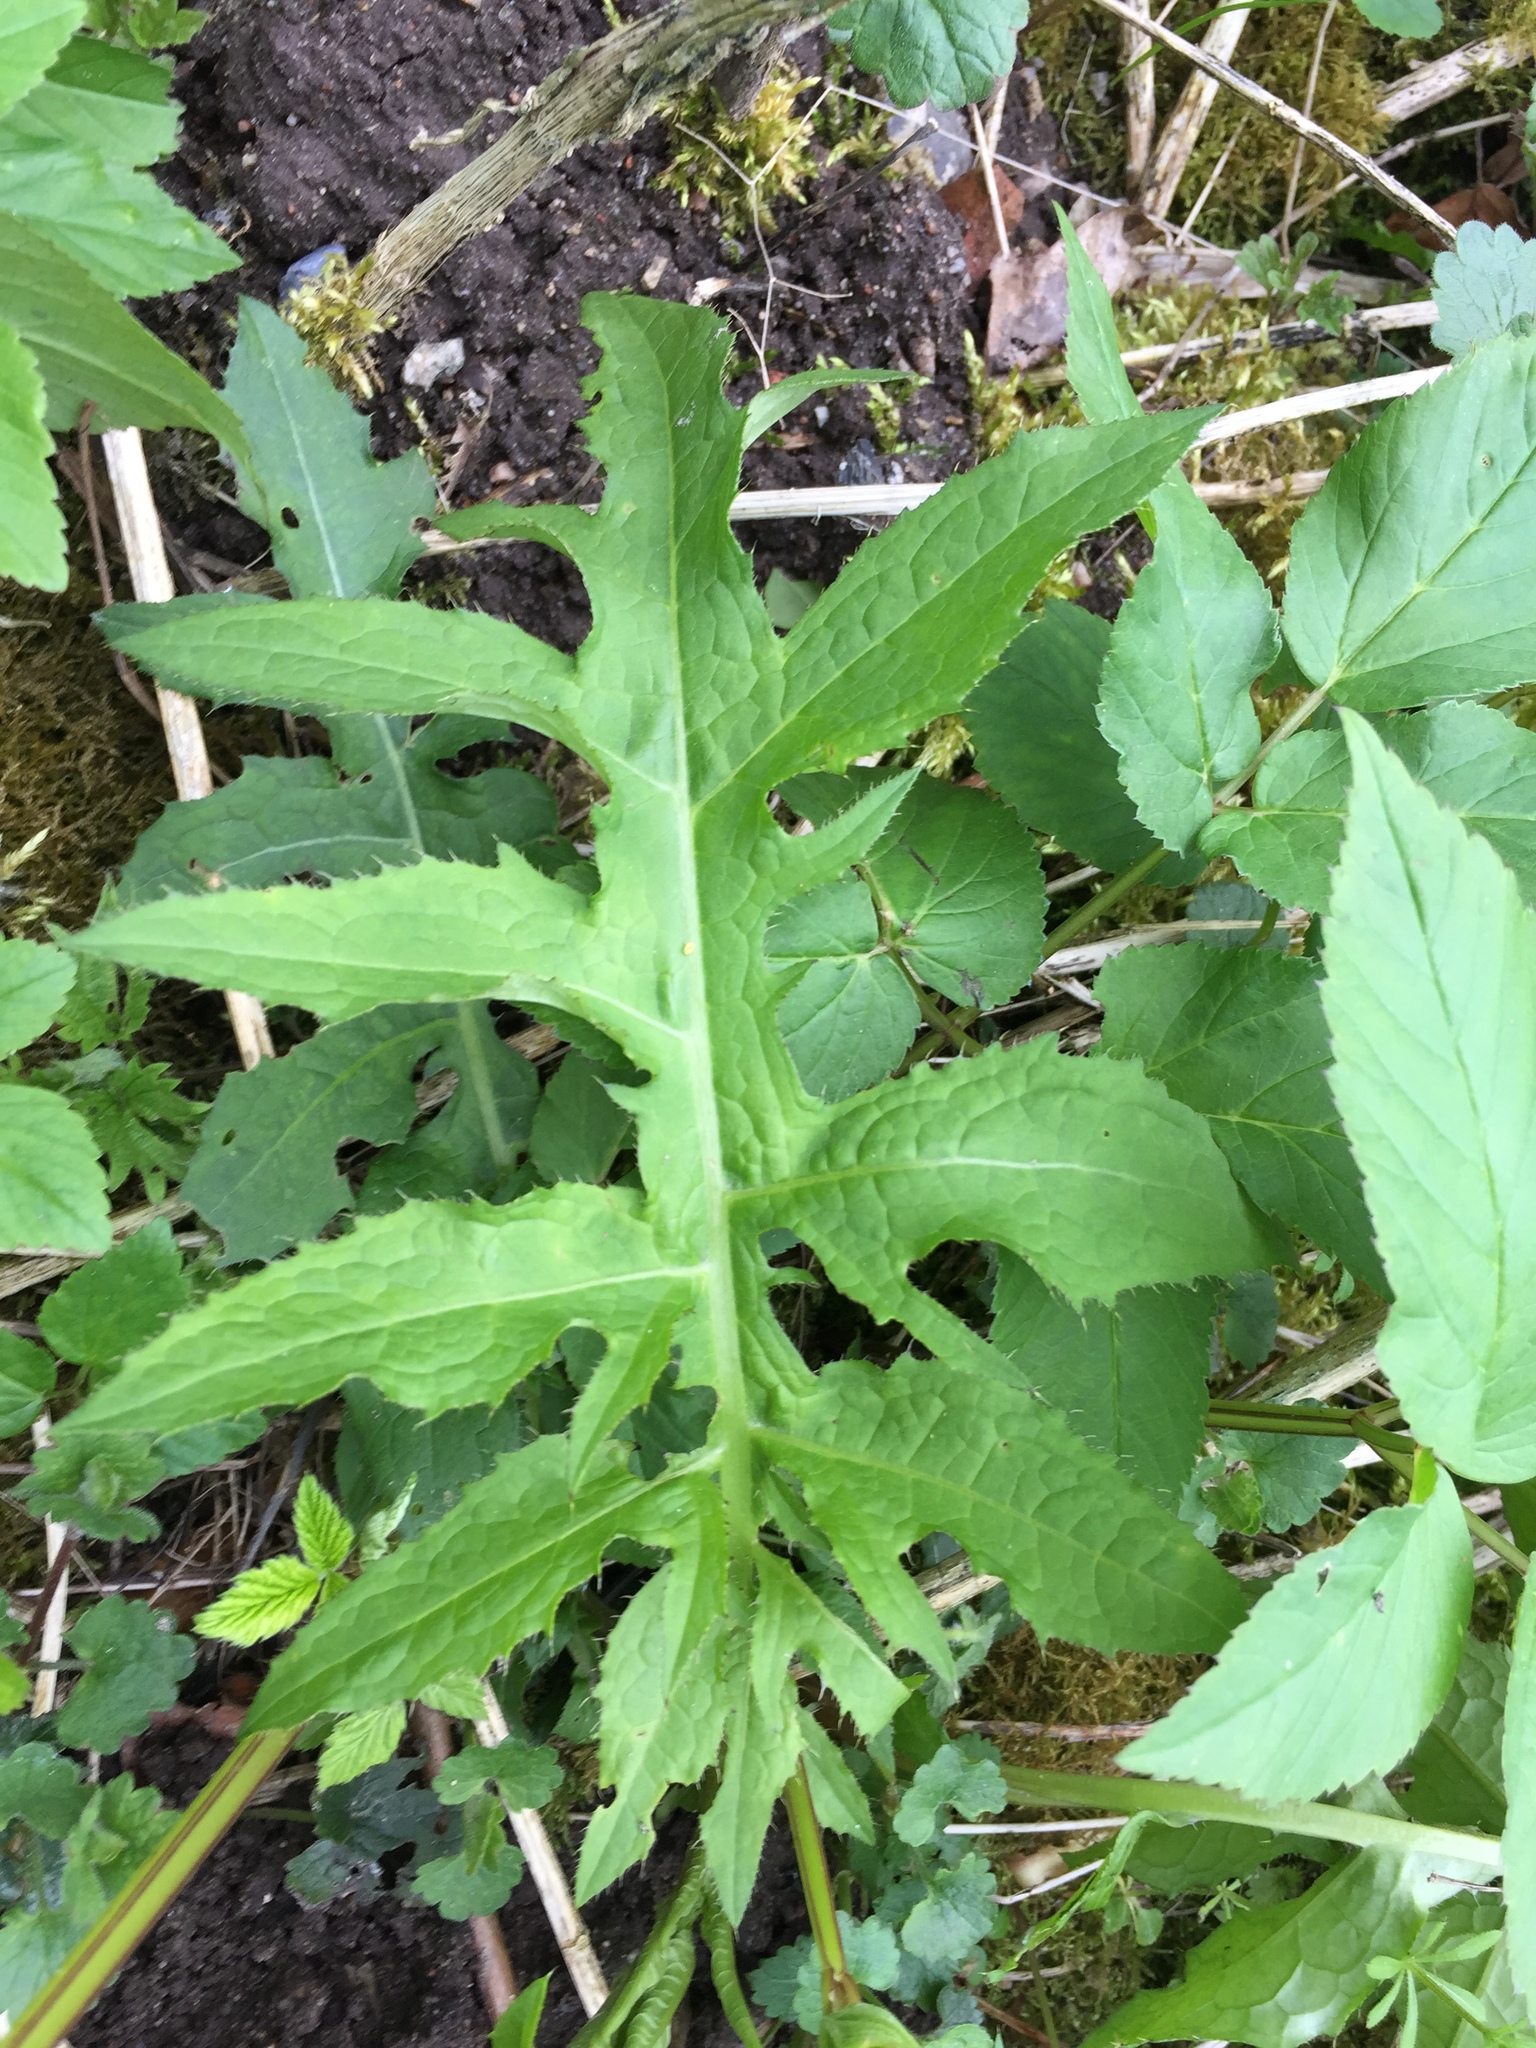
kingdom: Plantae
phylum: Tracheophyta
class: Magnoliopsida
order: Asterales
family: Asteraceae
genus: Cirsium
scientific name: Cirsium oleraceum
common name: Cabbage thistle
